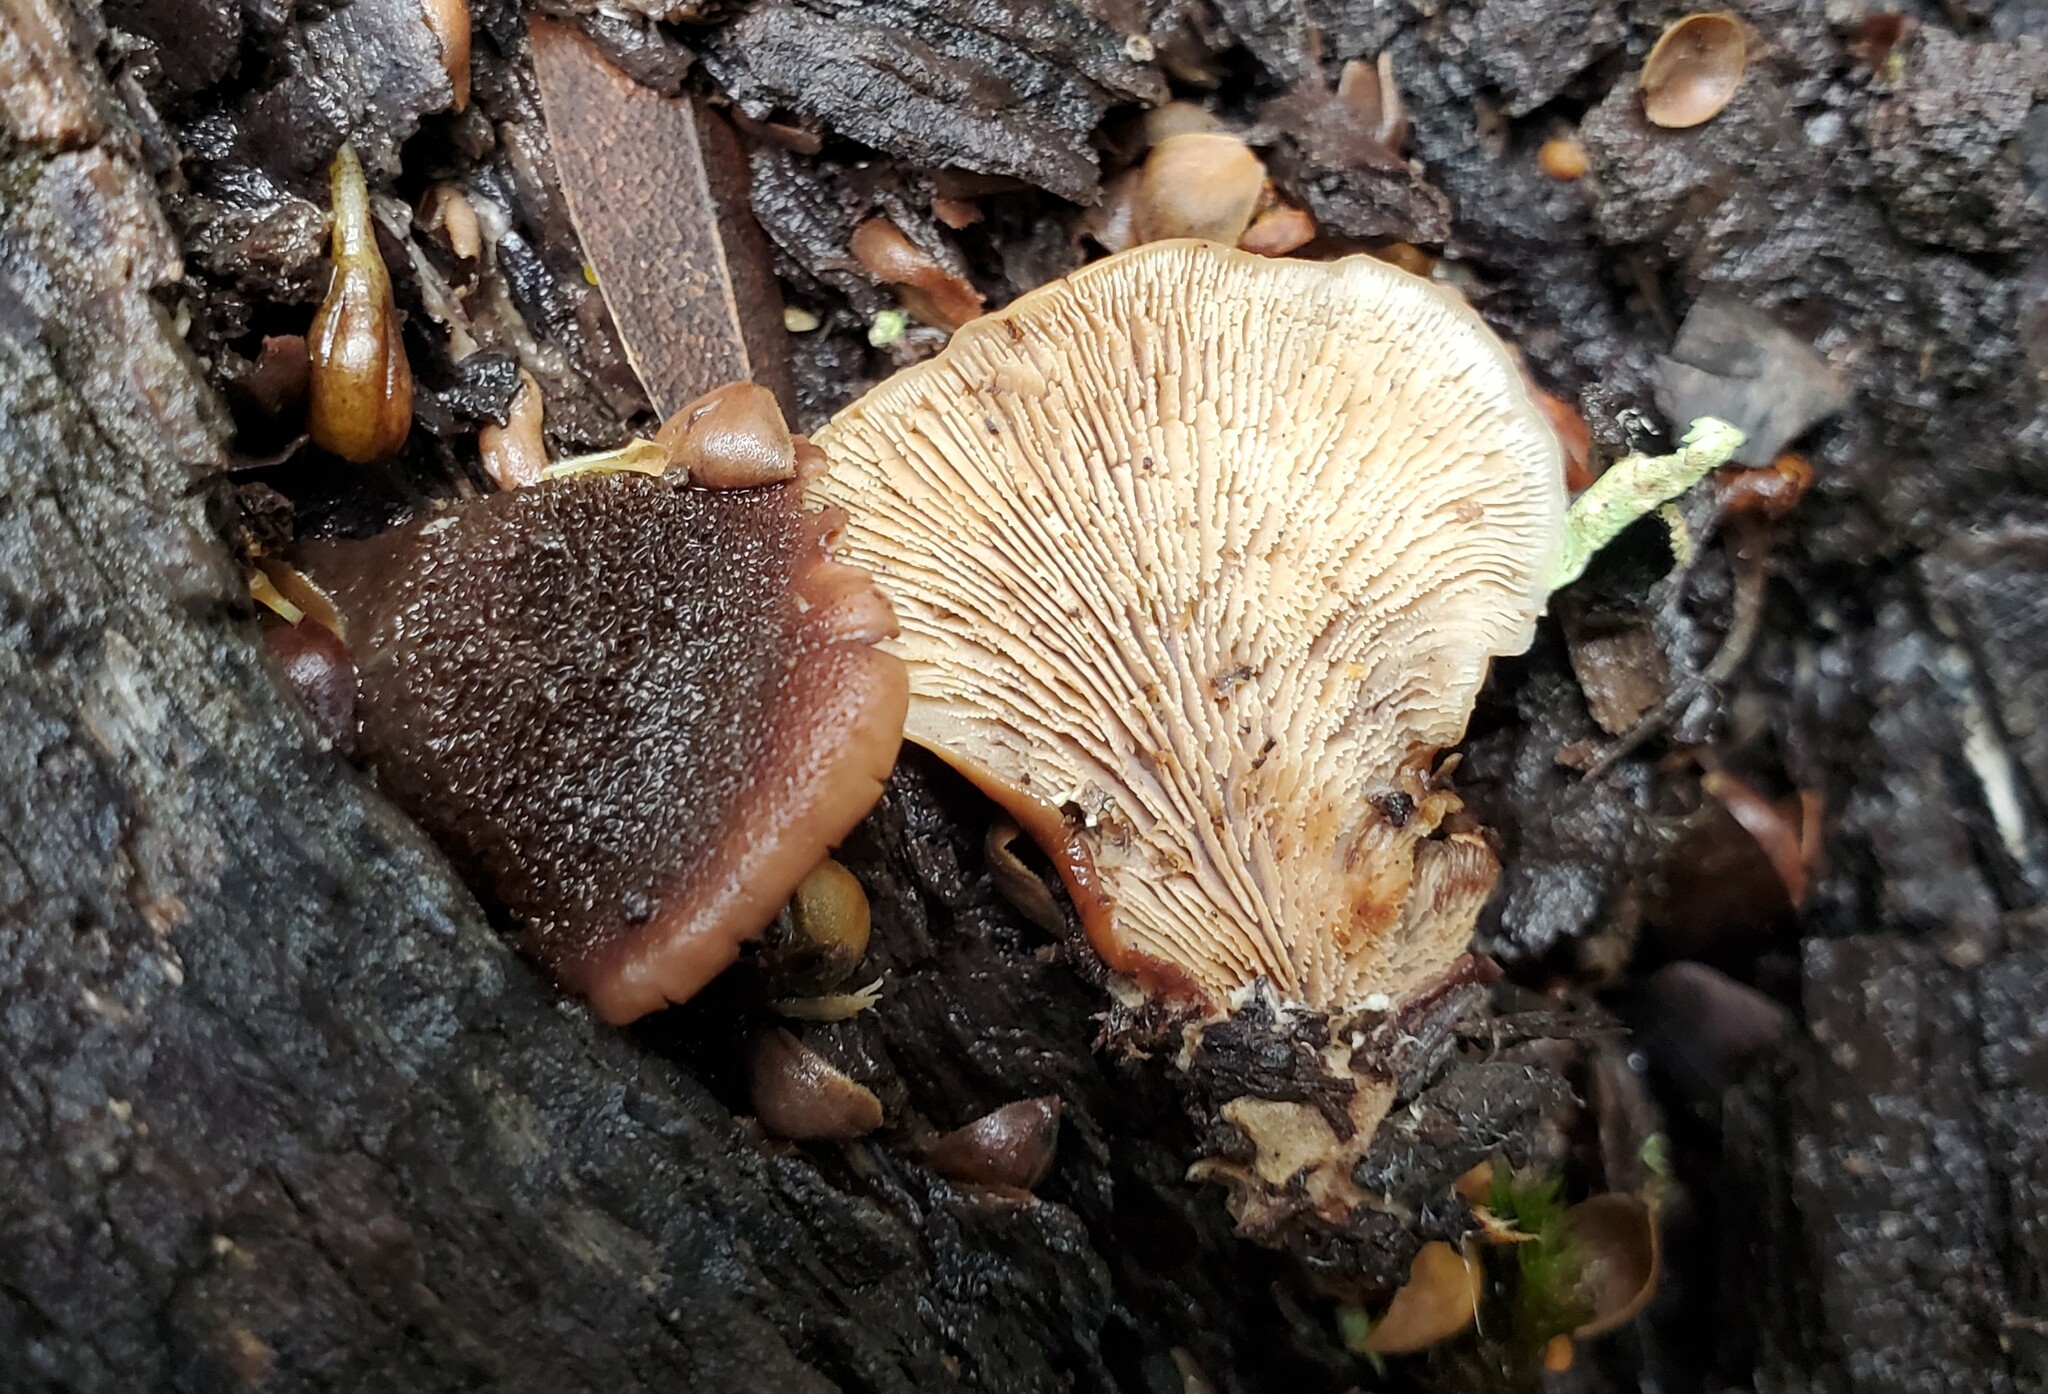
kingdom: Fungi
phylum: Basidiomycota
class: Agaricomycetes
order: Russulales
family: Auriscalpiaceae
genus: Lentinellus
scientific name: Lentinellus ursinus
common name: Bear lentinus
